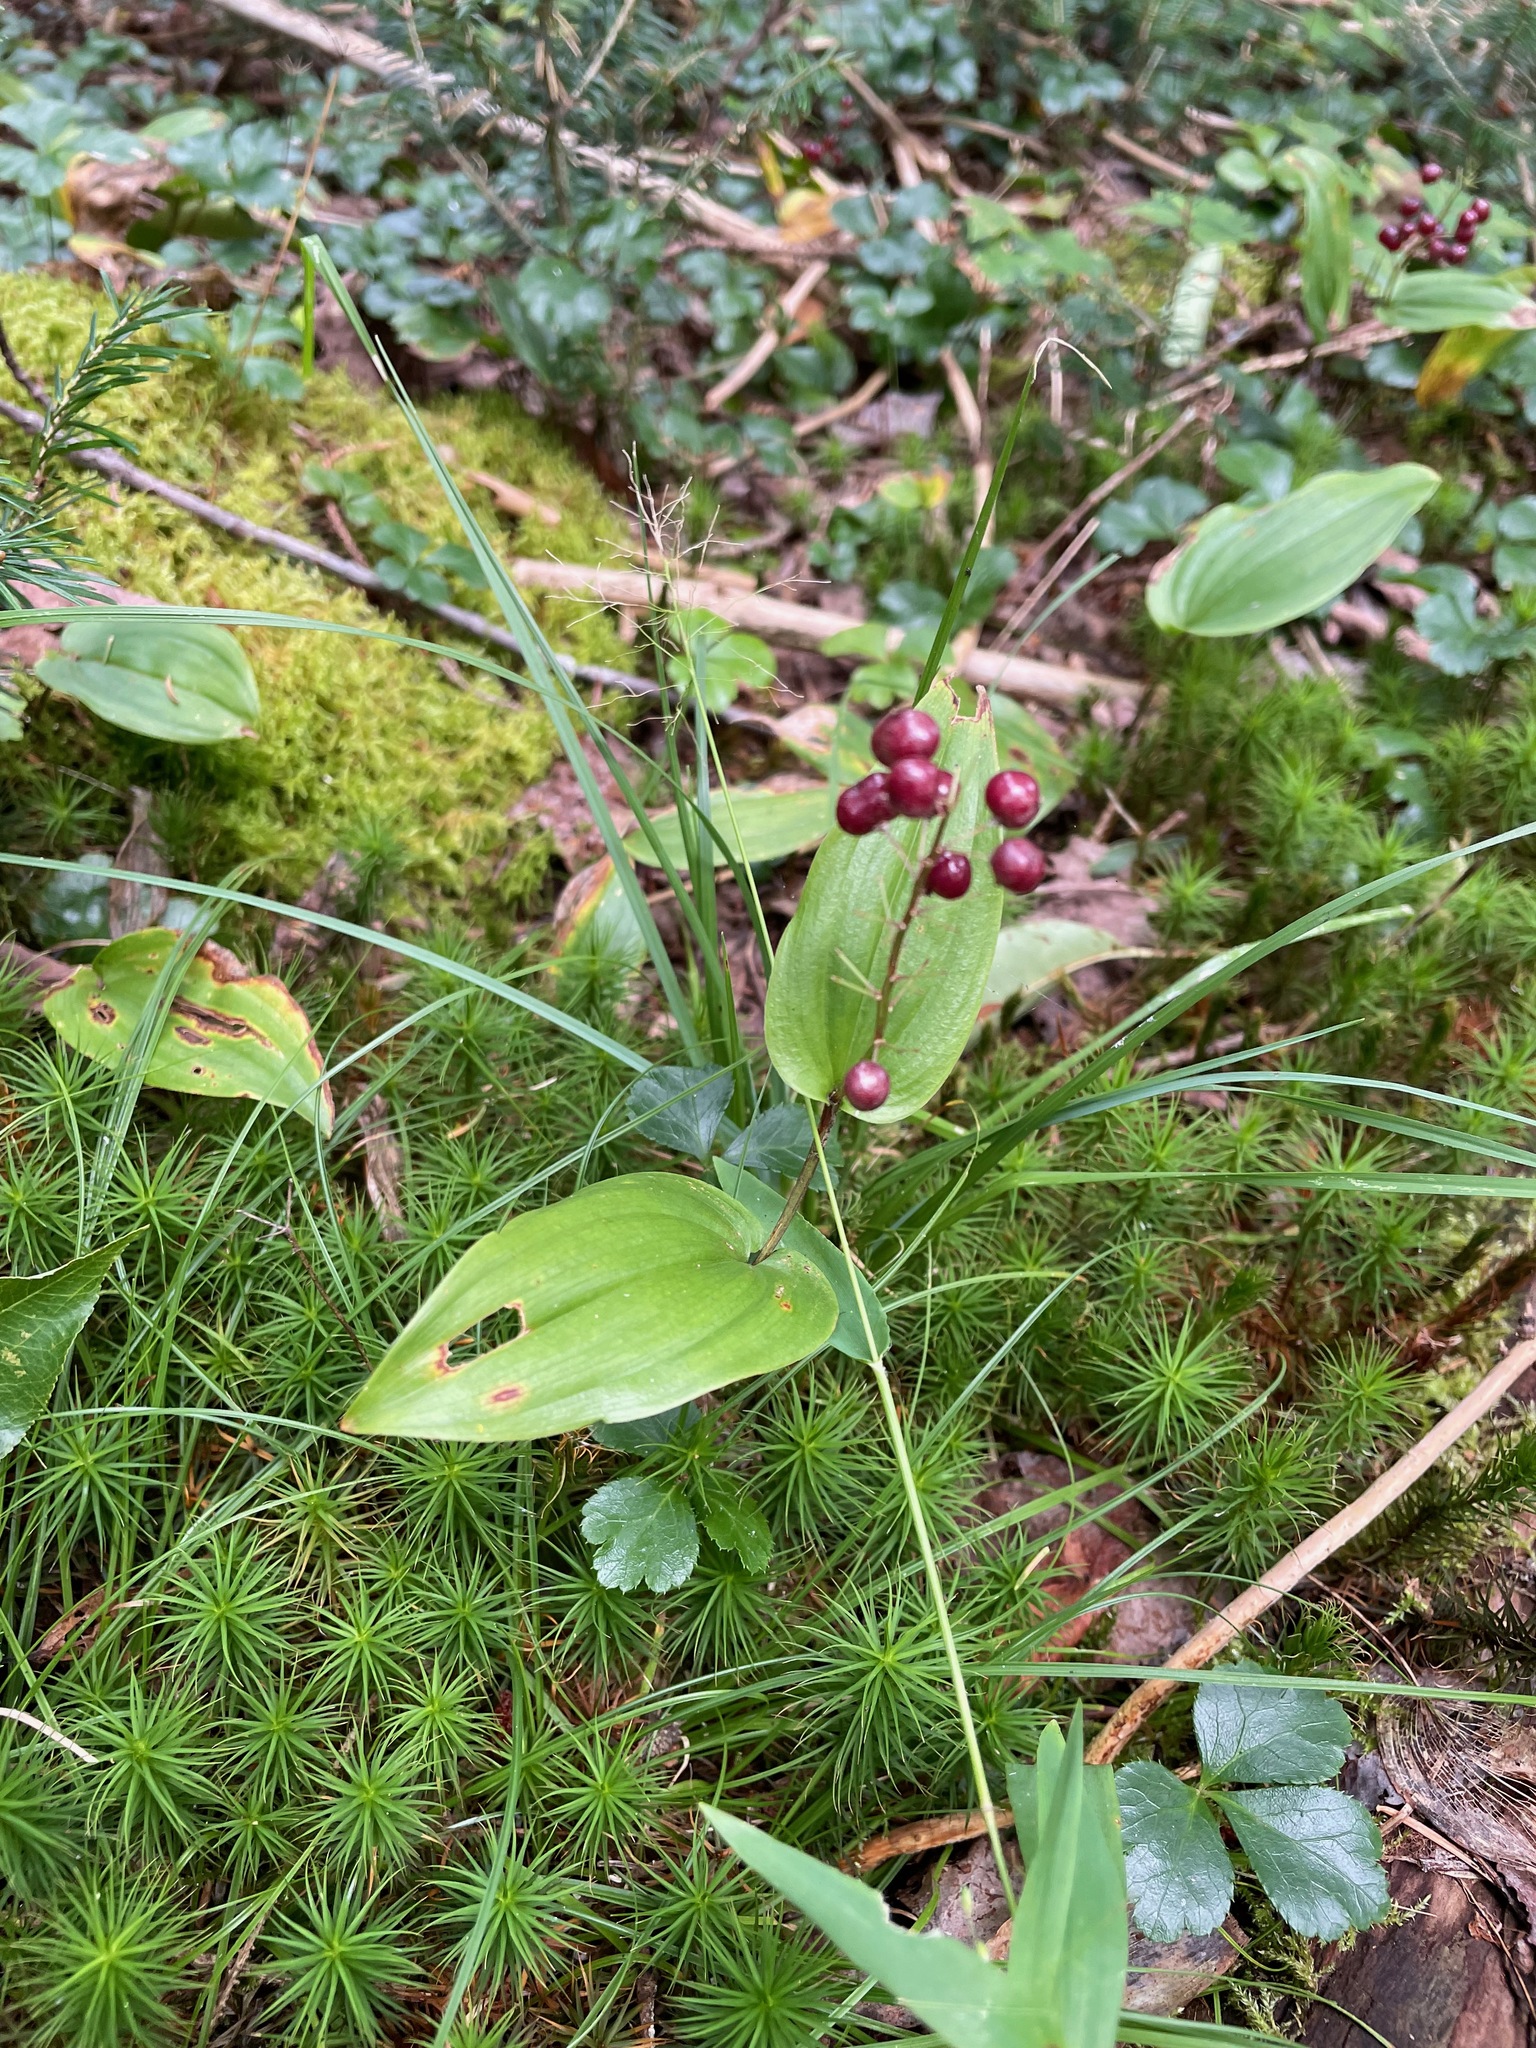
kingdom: Plantae
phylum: Tracheophyta
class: Liliopsida
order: Asparagales
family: Asparagaceae
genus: Maianthemum
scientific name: Maianthemum canadense
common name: False lily-of-the-valley
